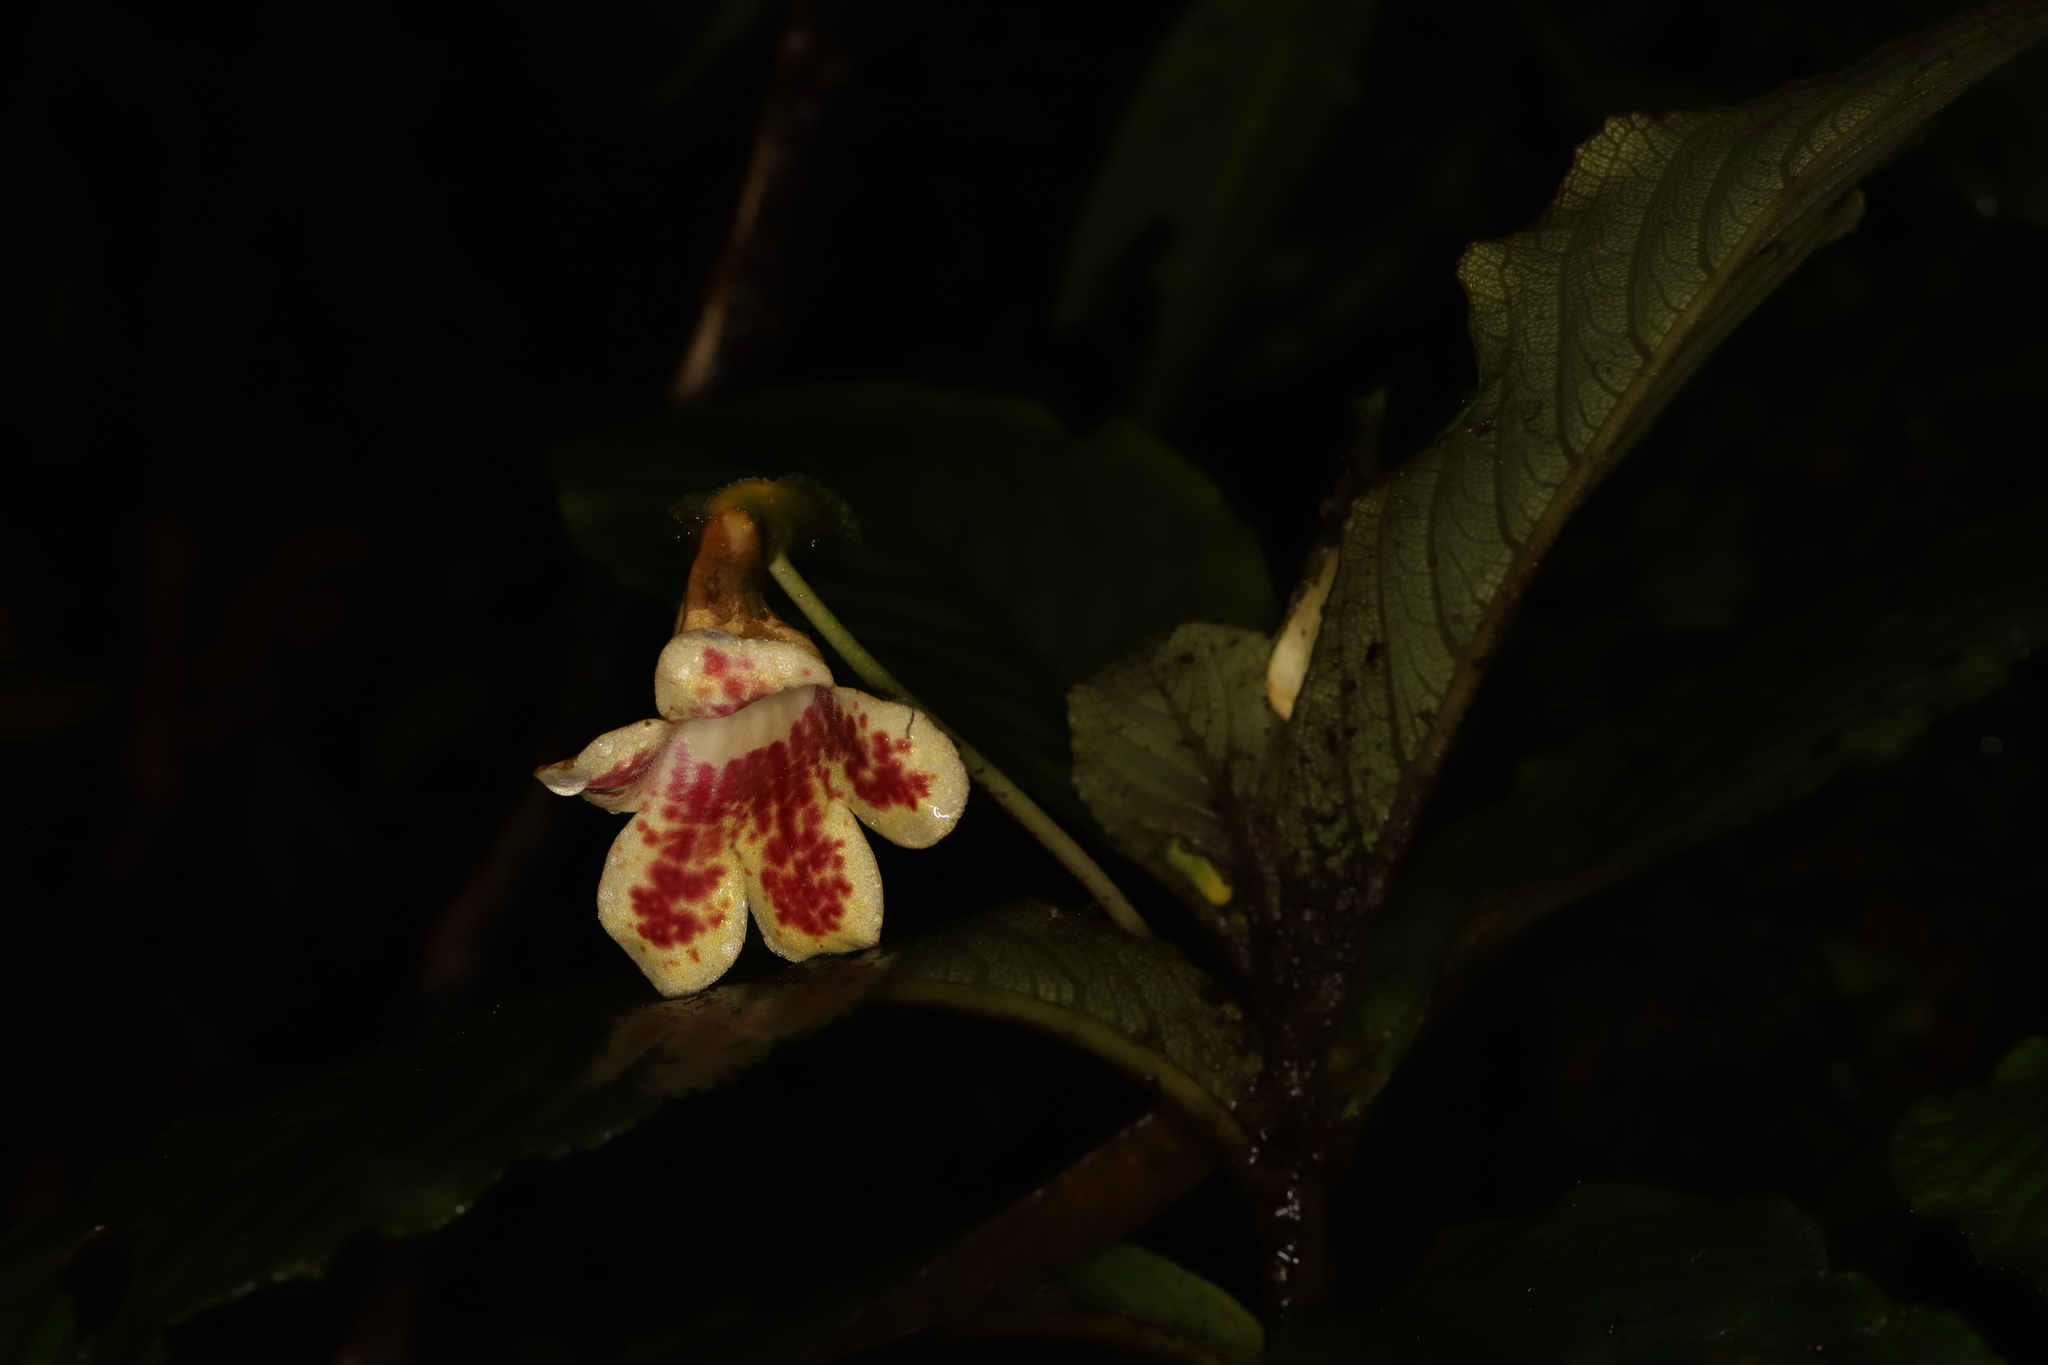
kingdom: Plantae
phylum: Tracheophyta
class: Magnoliopsida
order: Lamiales
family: Gesneriaceae
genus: Gasteranthus
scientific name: Gasteranthus delphinioides
